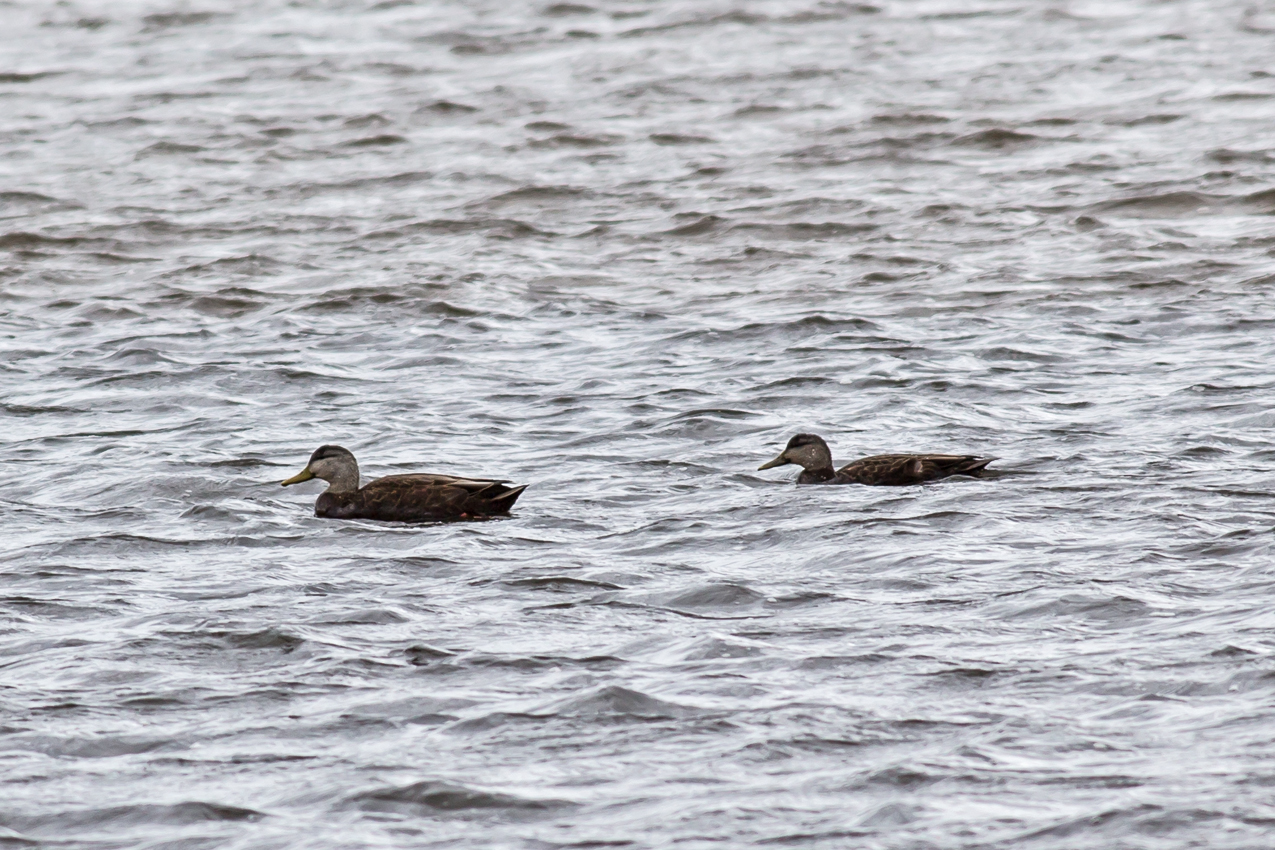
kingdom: Animalia
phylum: Chordata
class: Aves
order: Anseriformes
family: Anatidae
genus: Anas
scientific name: Anas rubripes
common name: American black duck
